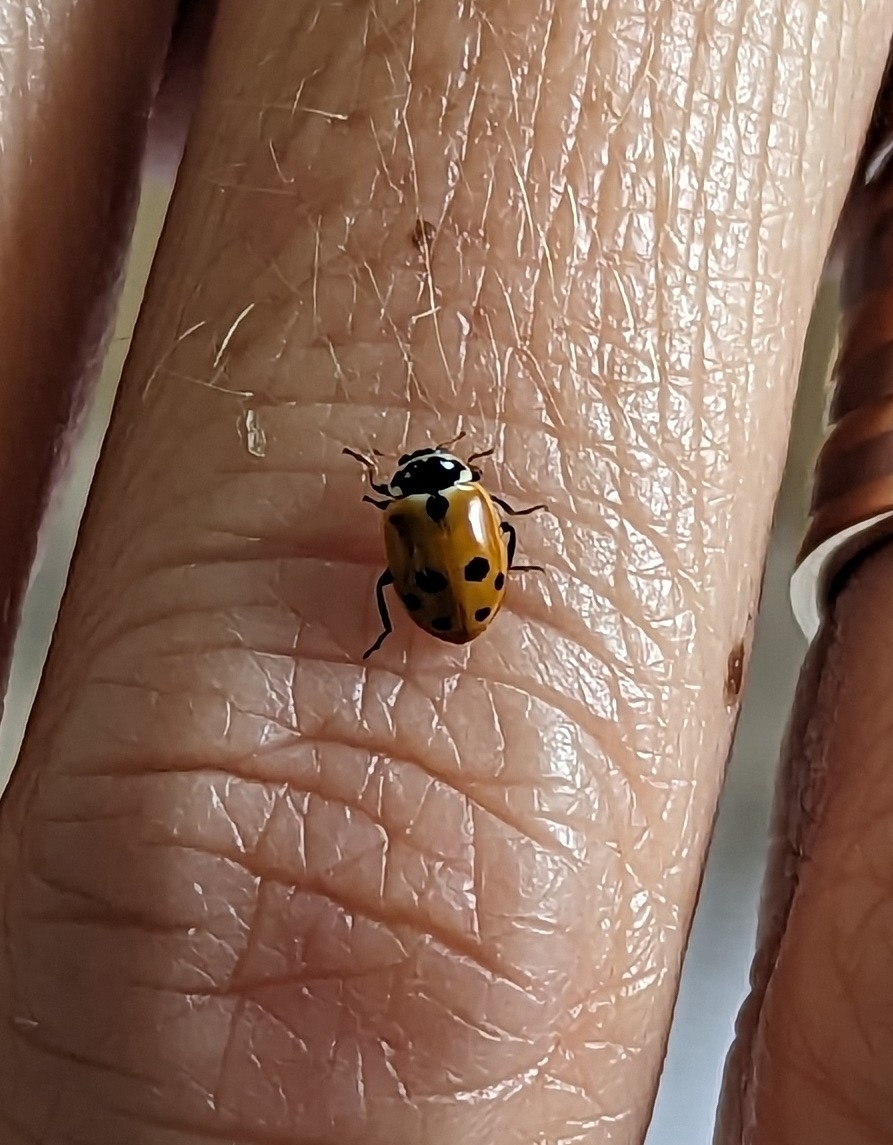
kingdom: Animalia
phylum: Arthropoda
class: Insecta
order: Coleoptera
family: Coccinellidae
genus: Hippodamia
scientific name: Hippodamia variegata
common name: Ladybird beetle
